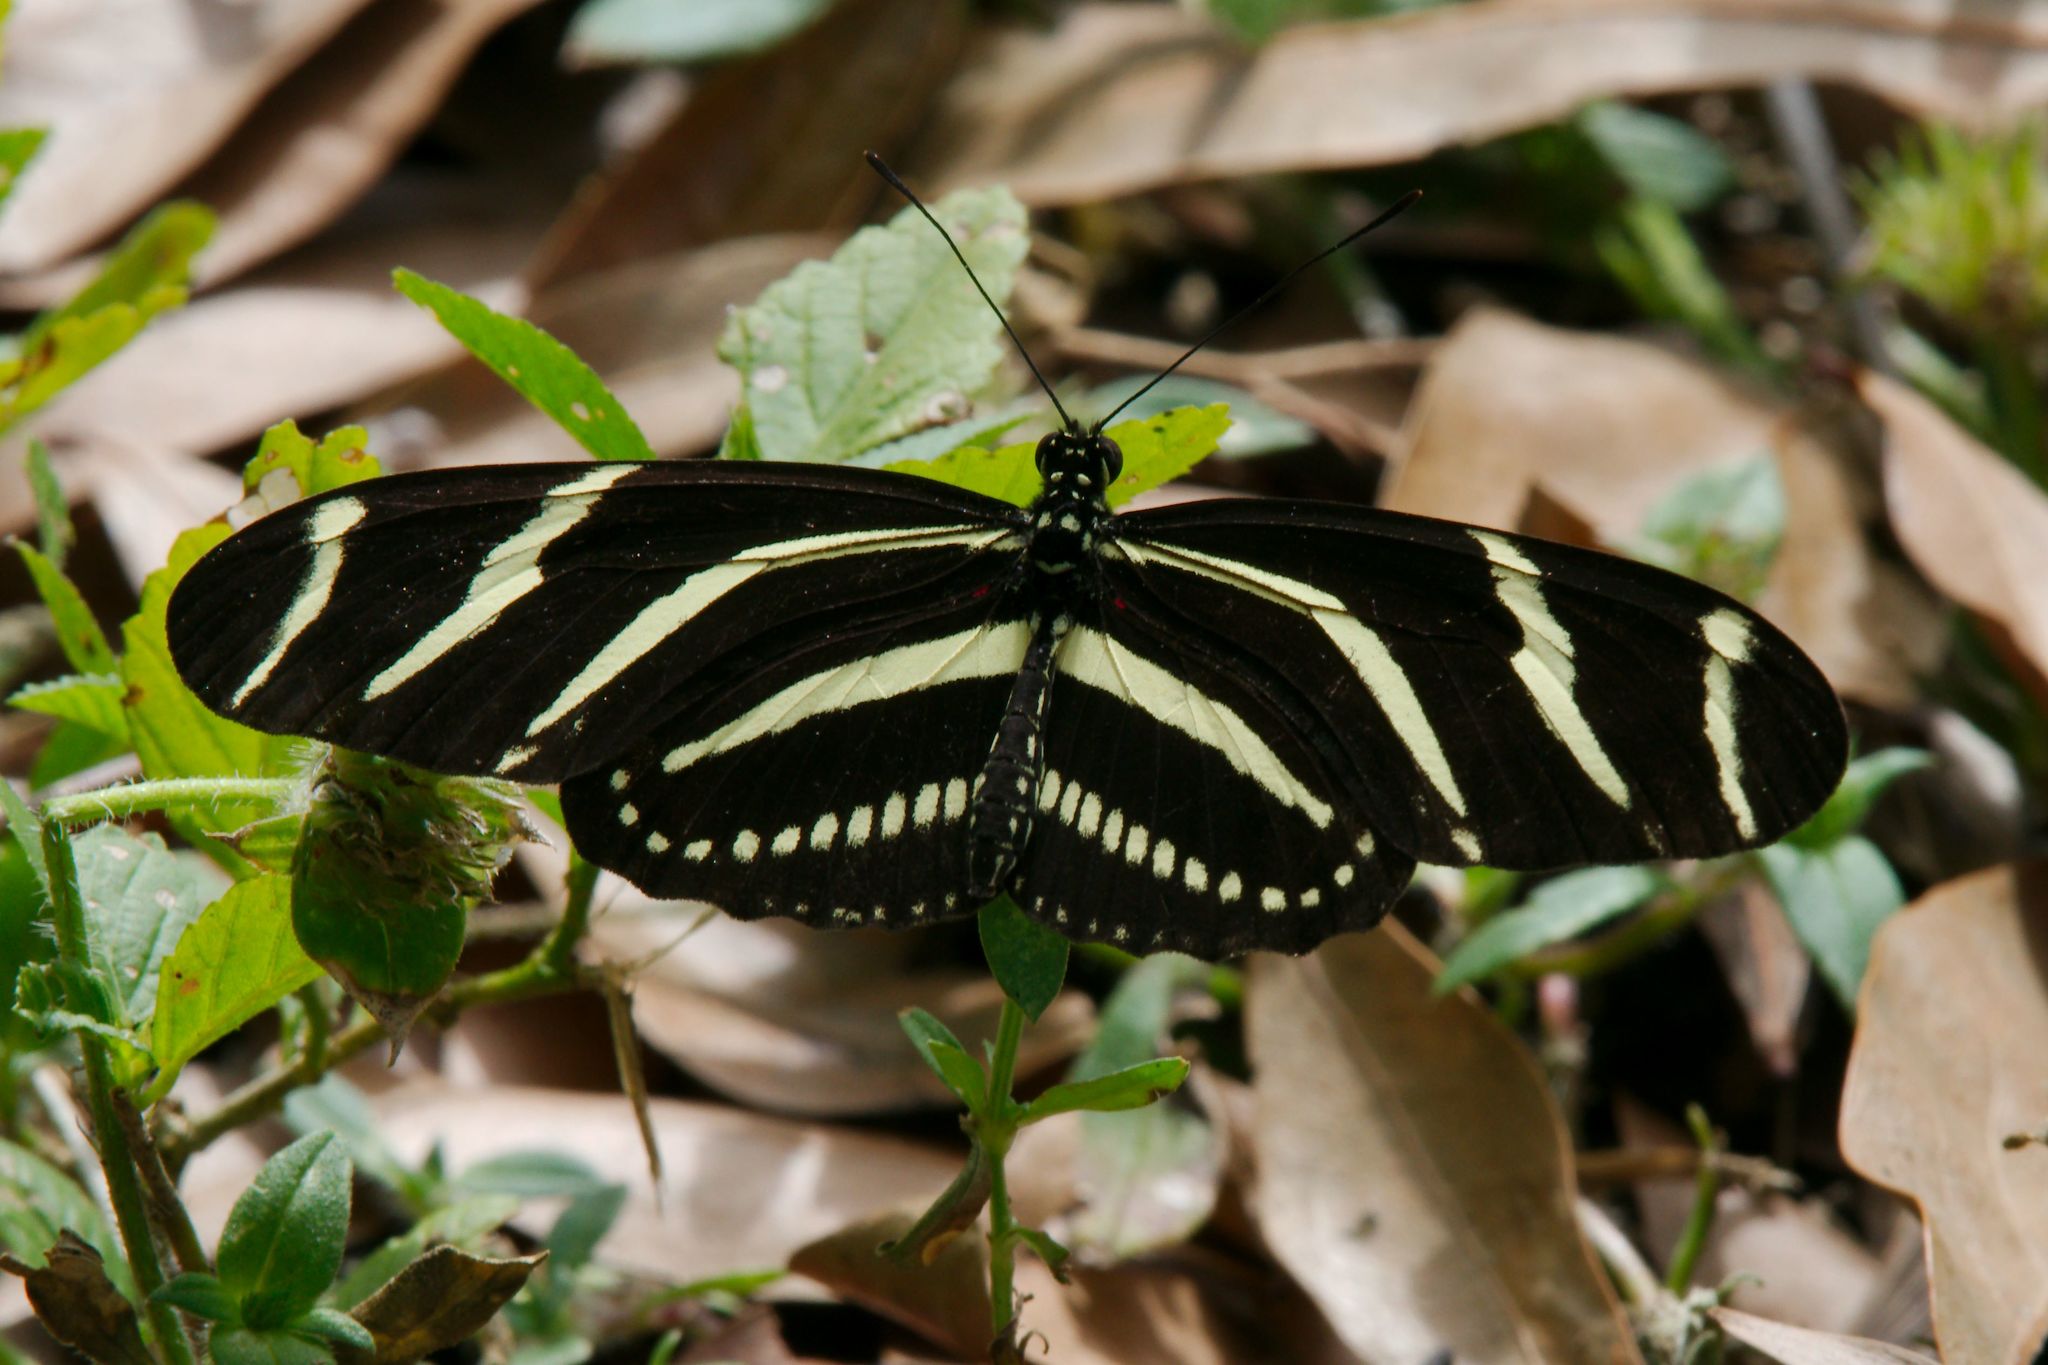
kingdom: Animalia
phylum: Arthropoda
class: Insecta
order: Lepidoptera
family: Nymphalidae
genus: Heliconius
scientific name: Heliconius charithonia
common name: Zebra long wing
